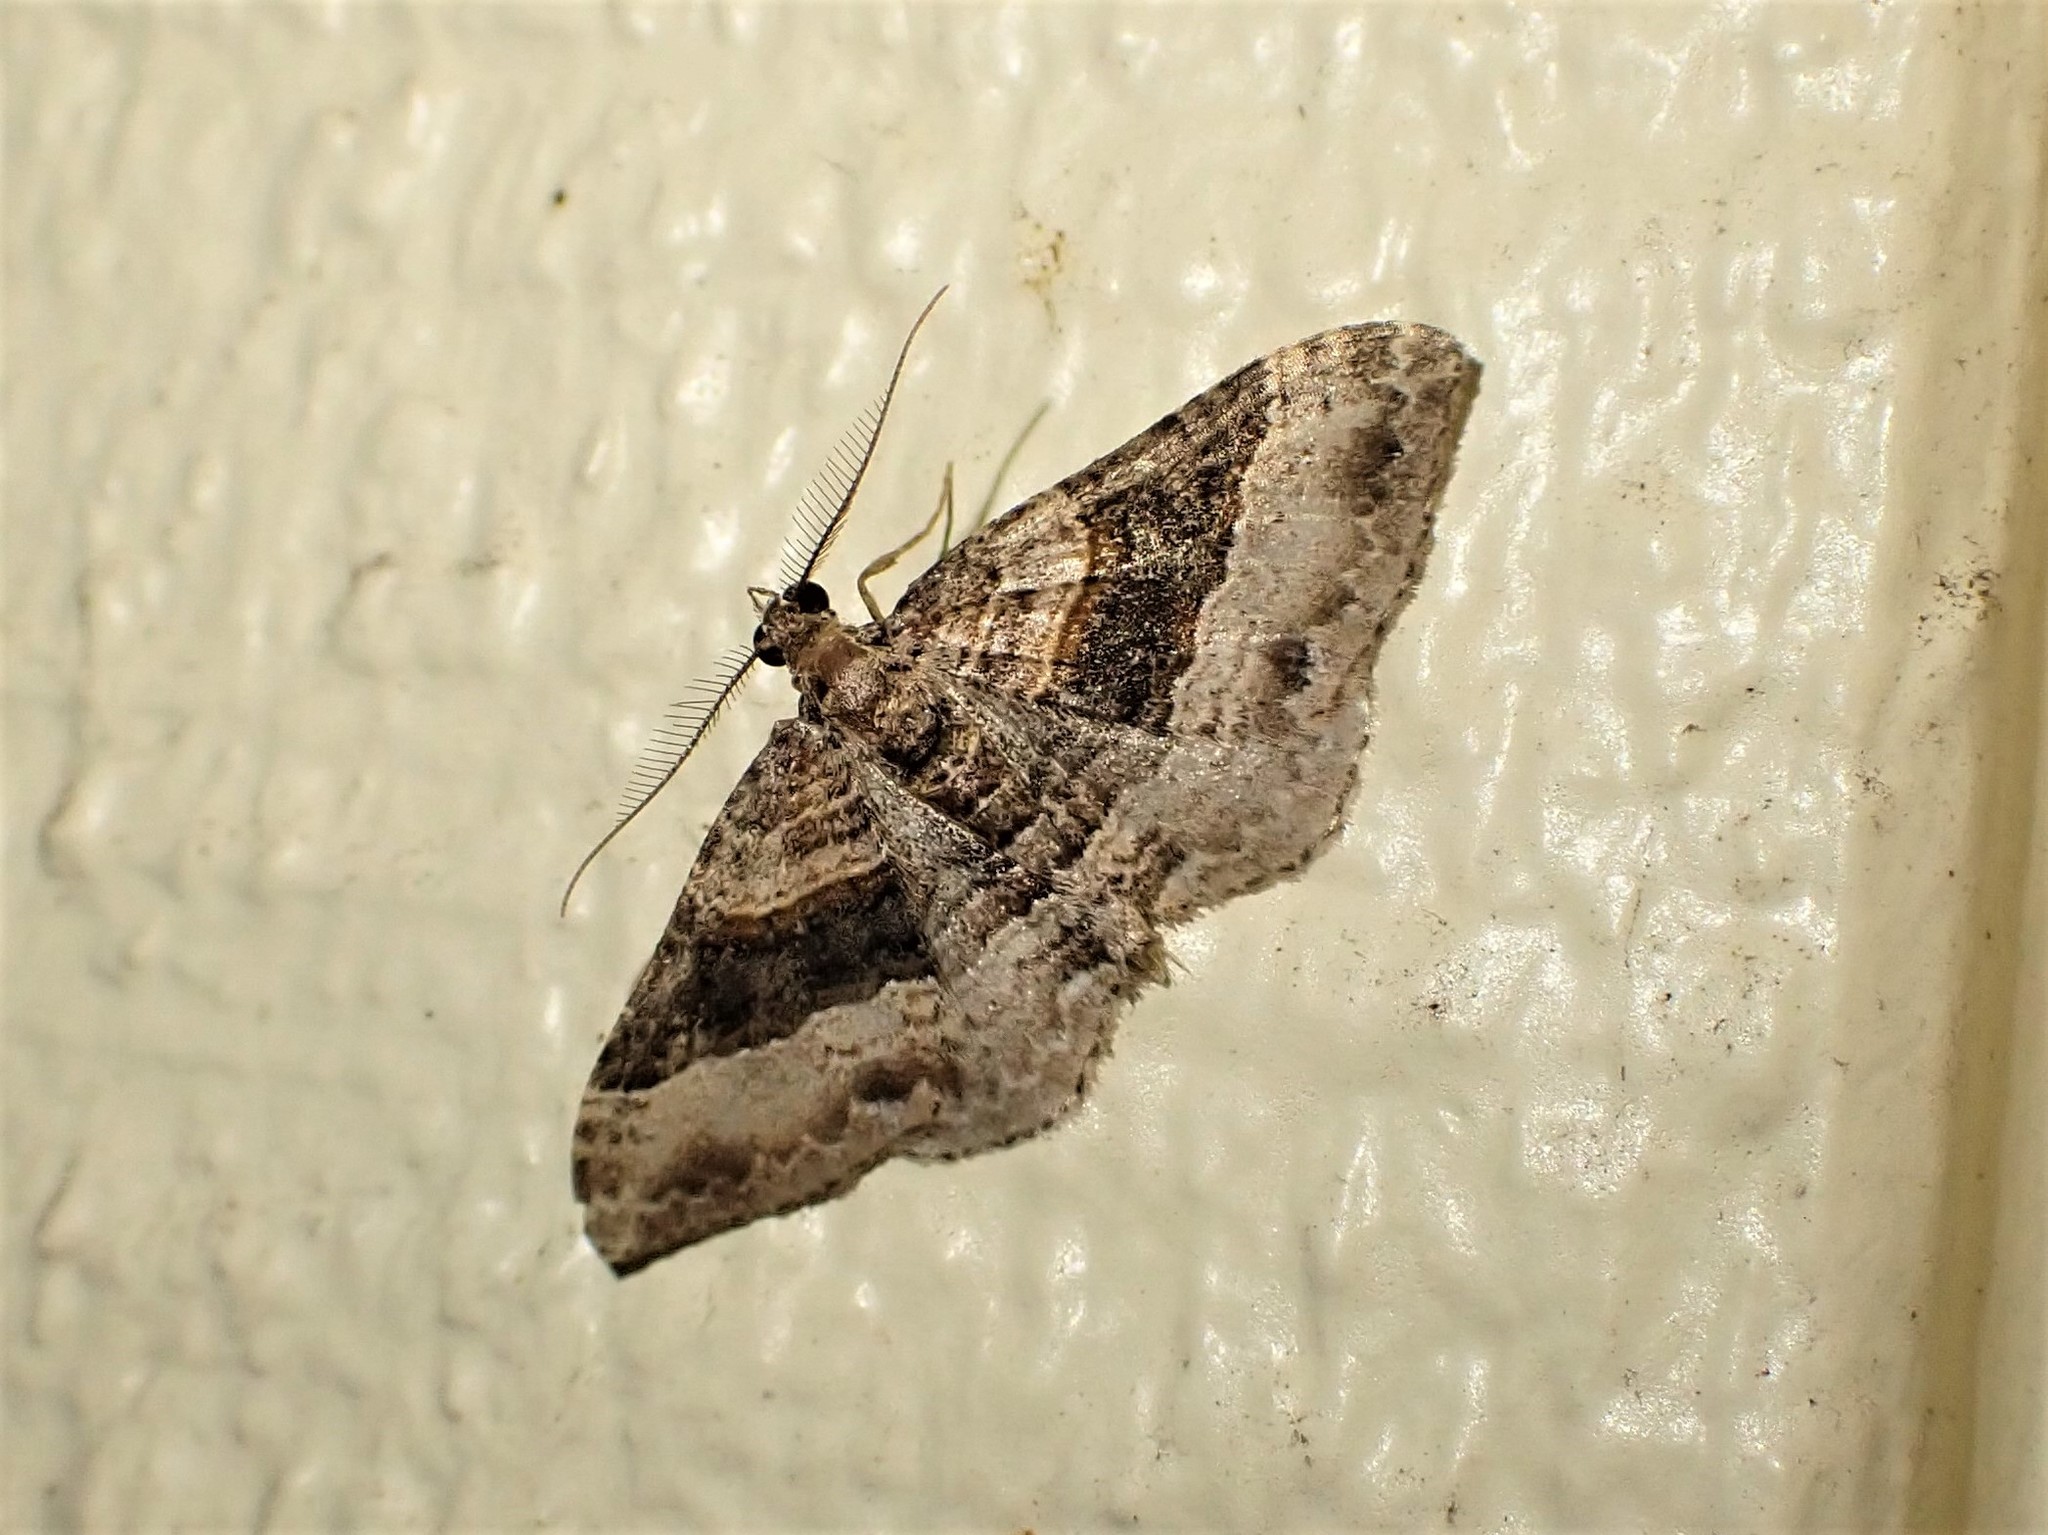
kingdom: Animalia
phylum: Arthropoda
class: Insecta
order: Lepidoptera
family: Geometridae
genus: Epyaxa
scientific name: Epyaxa lucidata
